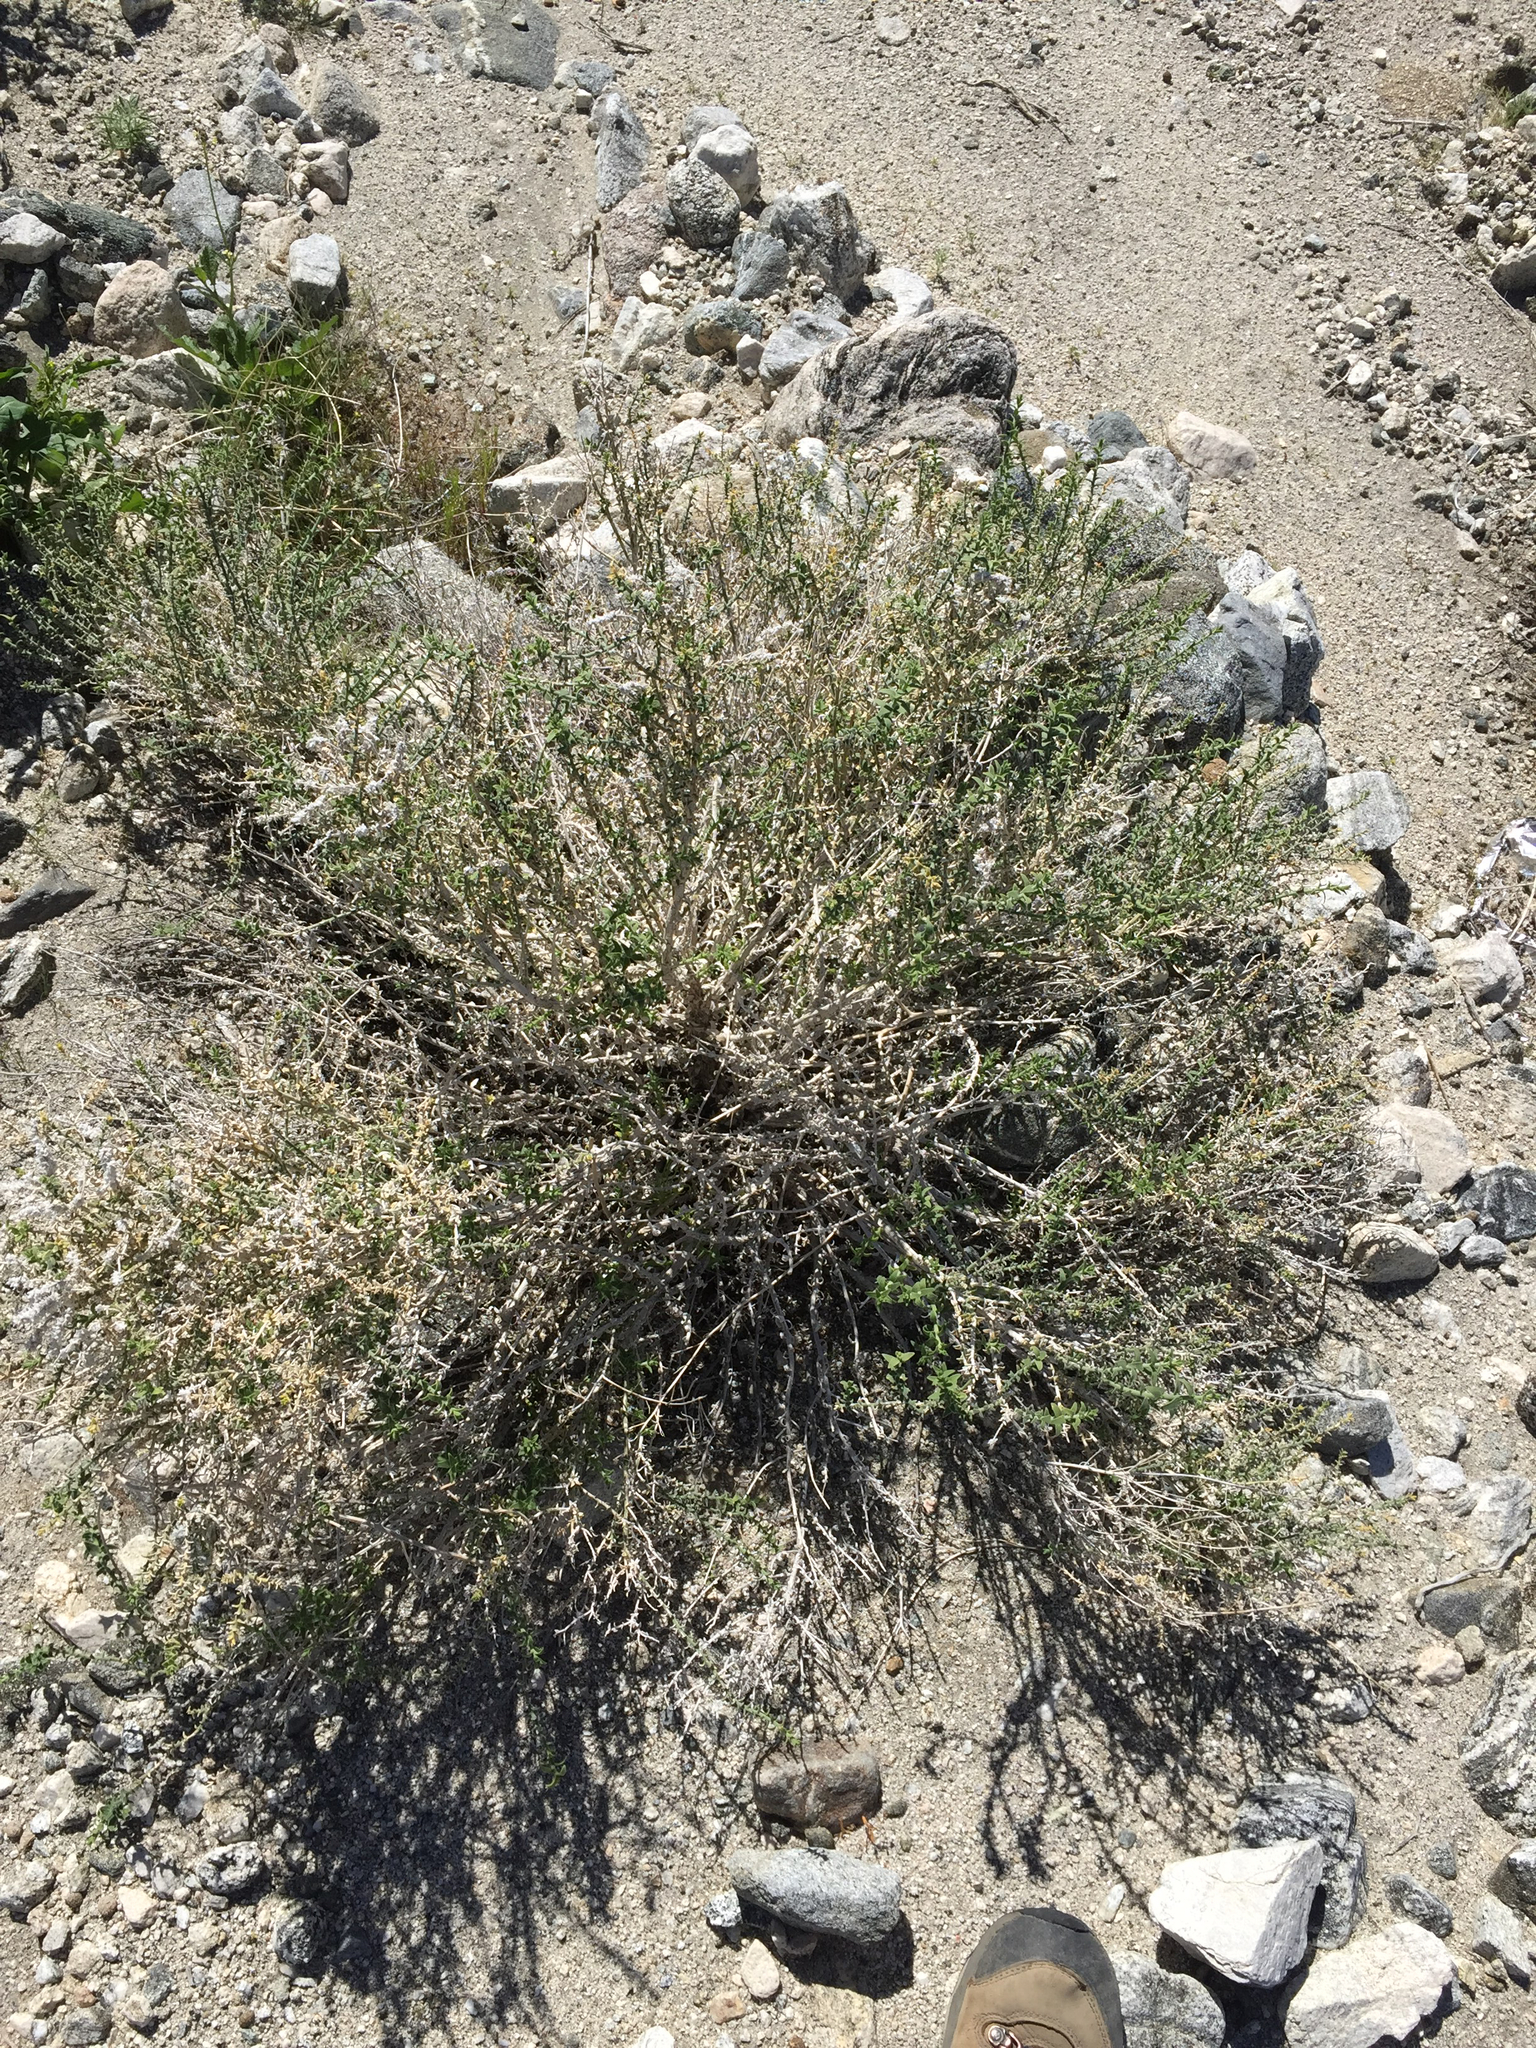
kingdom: Plantae
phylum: Tracheophyta
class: Magnoliopsida
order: Cornales
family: Loasaceae
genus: Petalonyx
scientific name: Petalonyx thurberi
